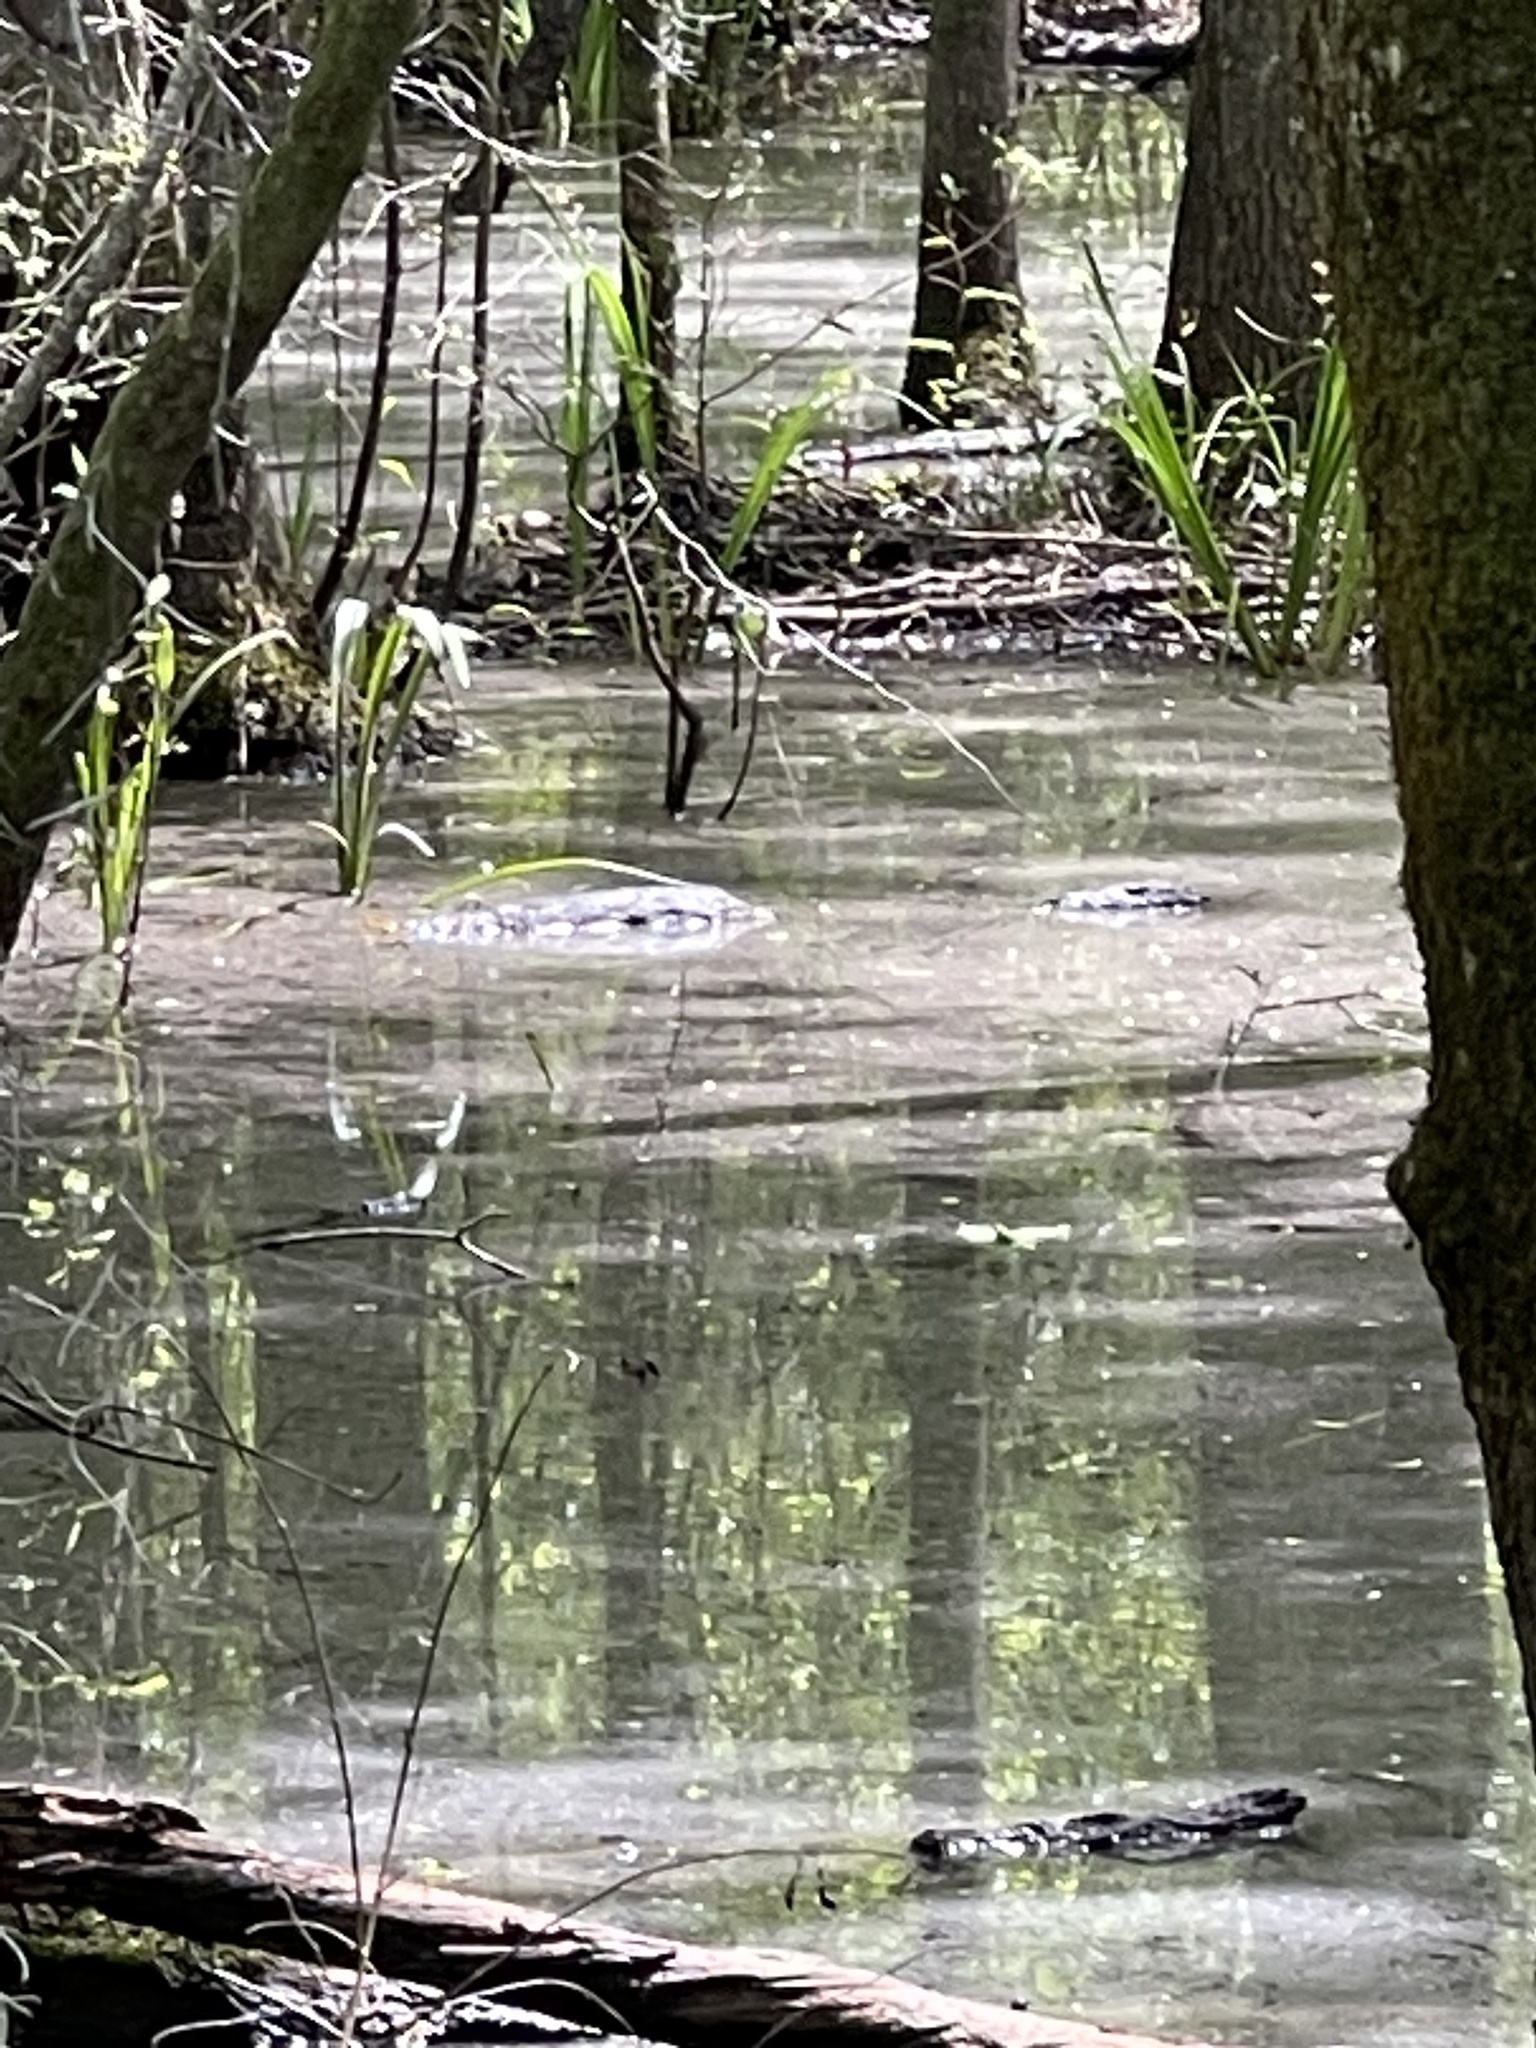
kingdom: Animalia
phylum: Chordata
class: Crocodylia
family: Alligatoridae
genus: Alligator
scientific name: Alligator mississippiensis
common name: American alligator
